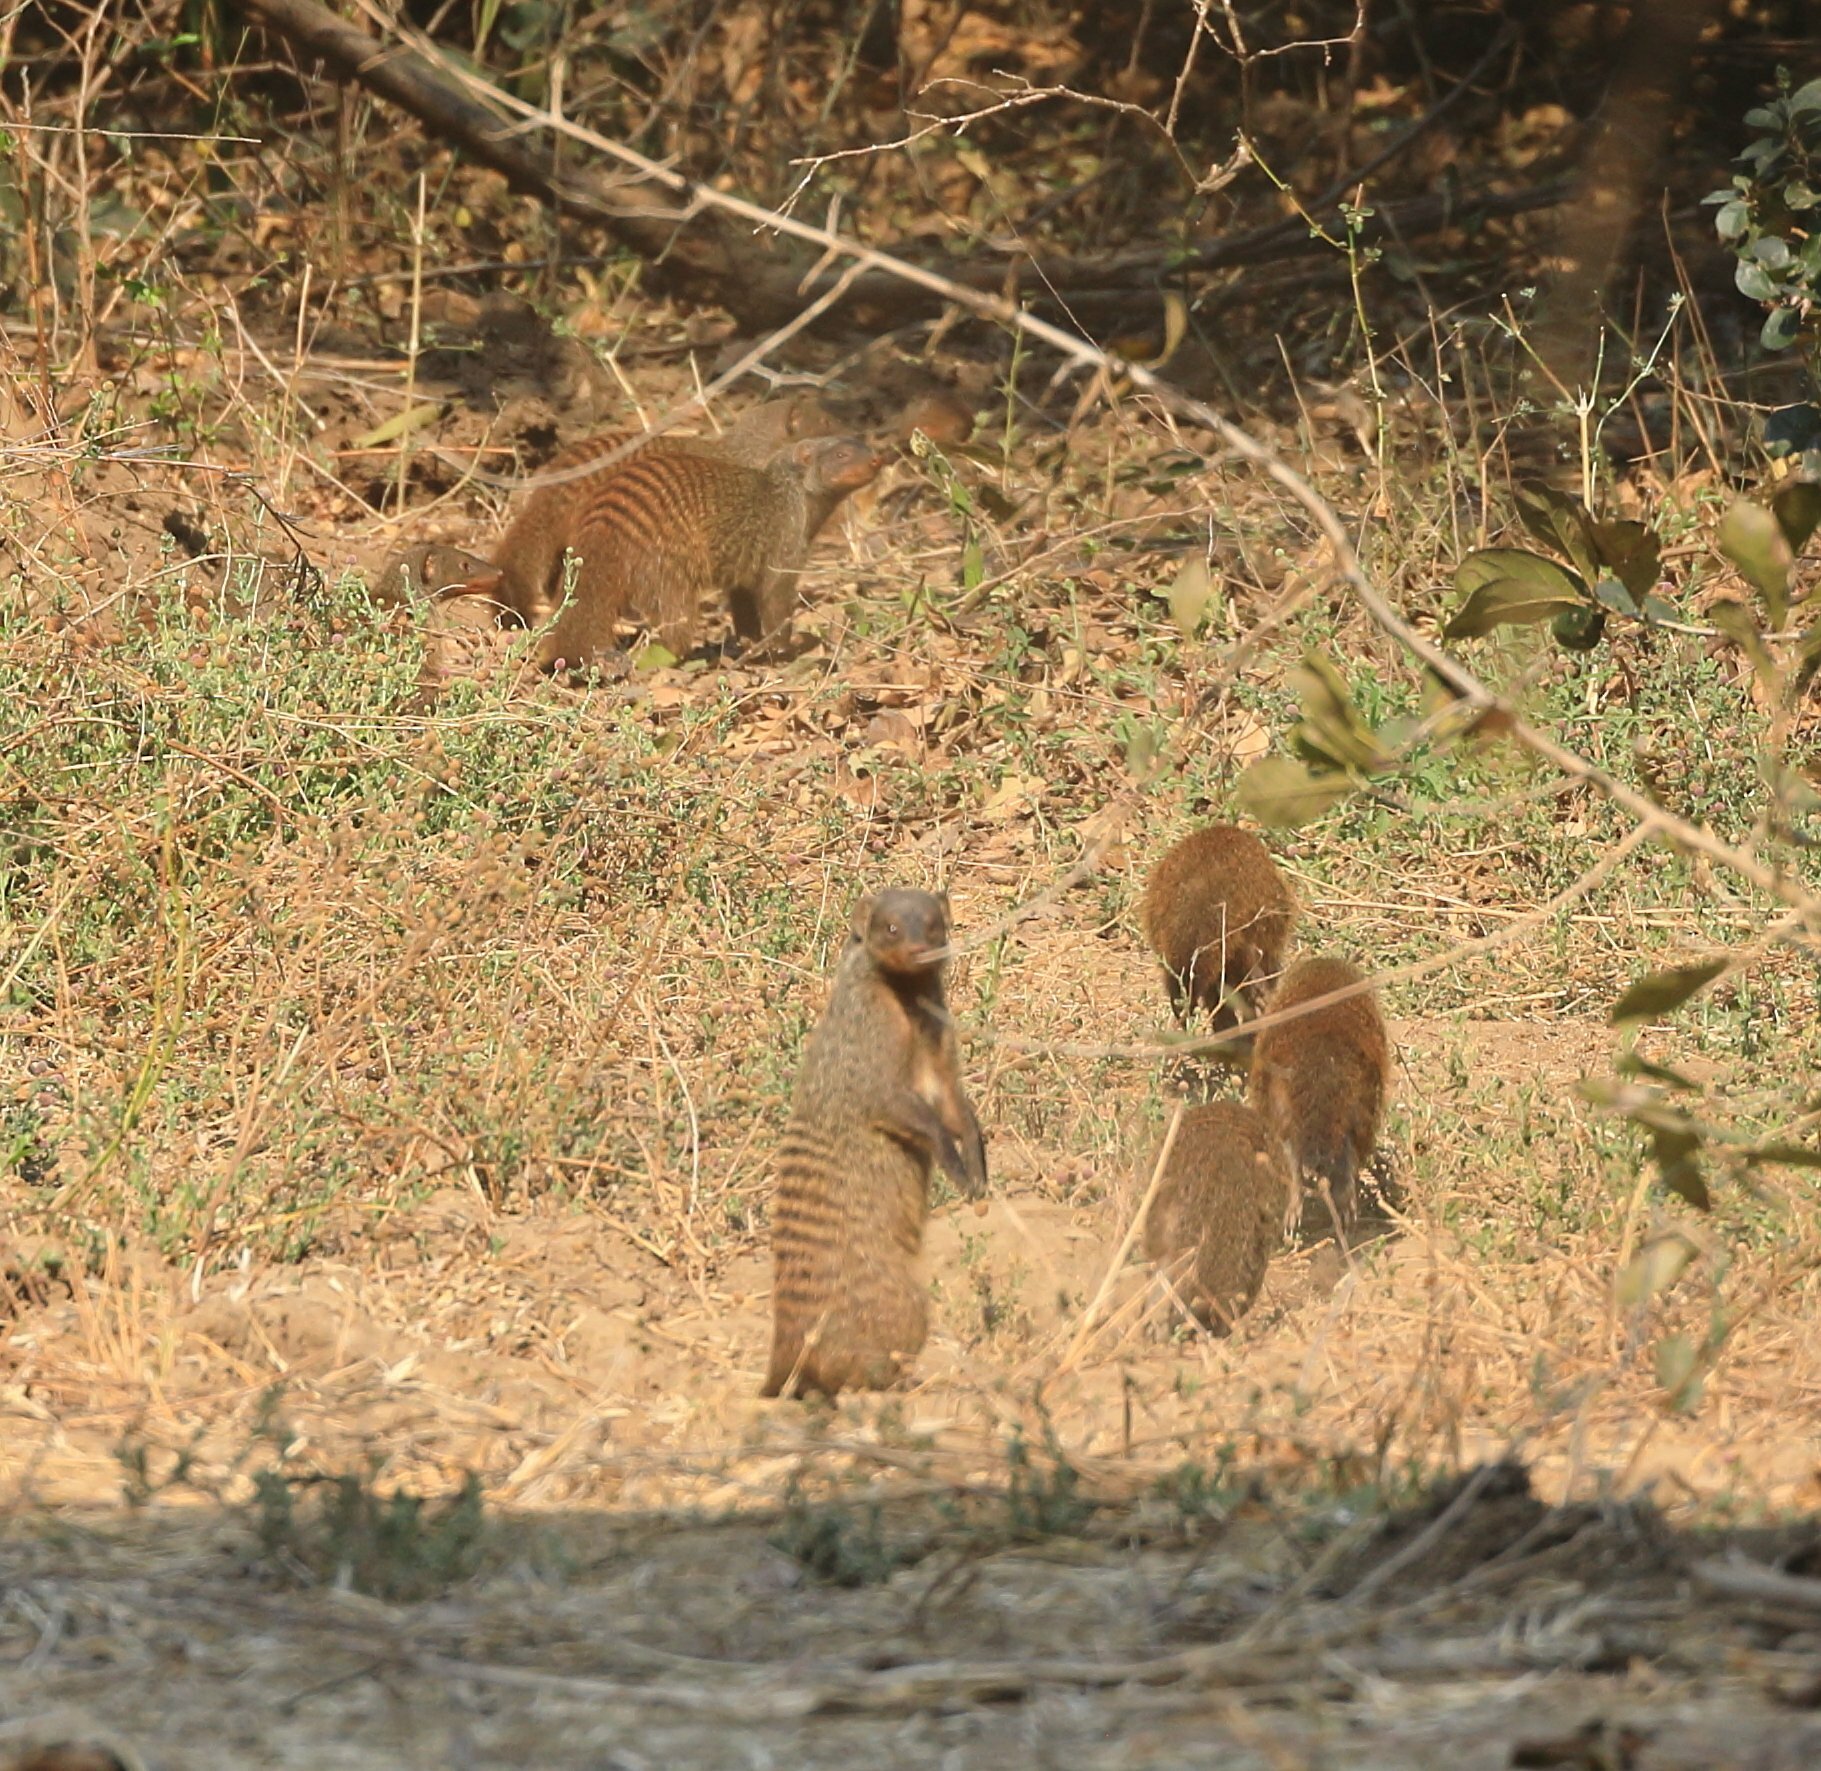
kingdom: Animalia
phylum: Chordata
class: Mammalia
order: Carnivora
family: Herpestidae
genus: Mungos
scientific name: Mungos mungo
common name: Banded mongoose
